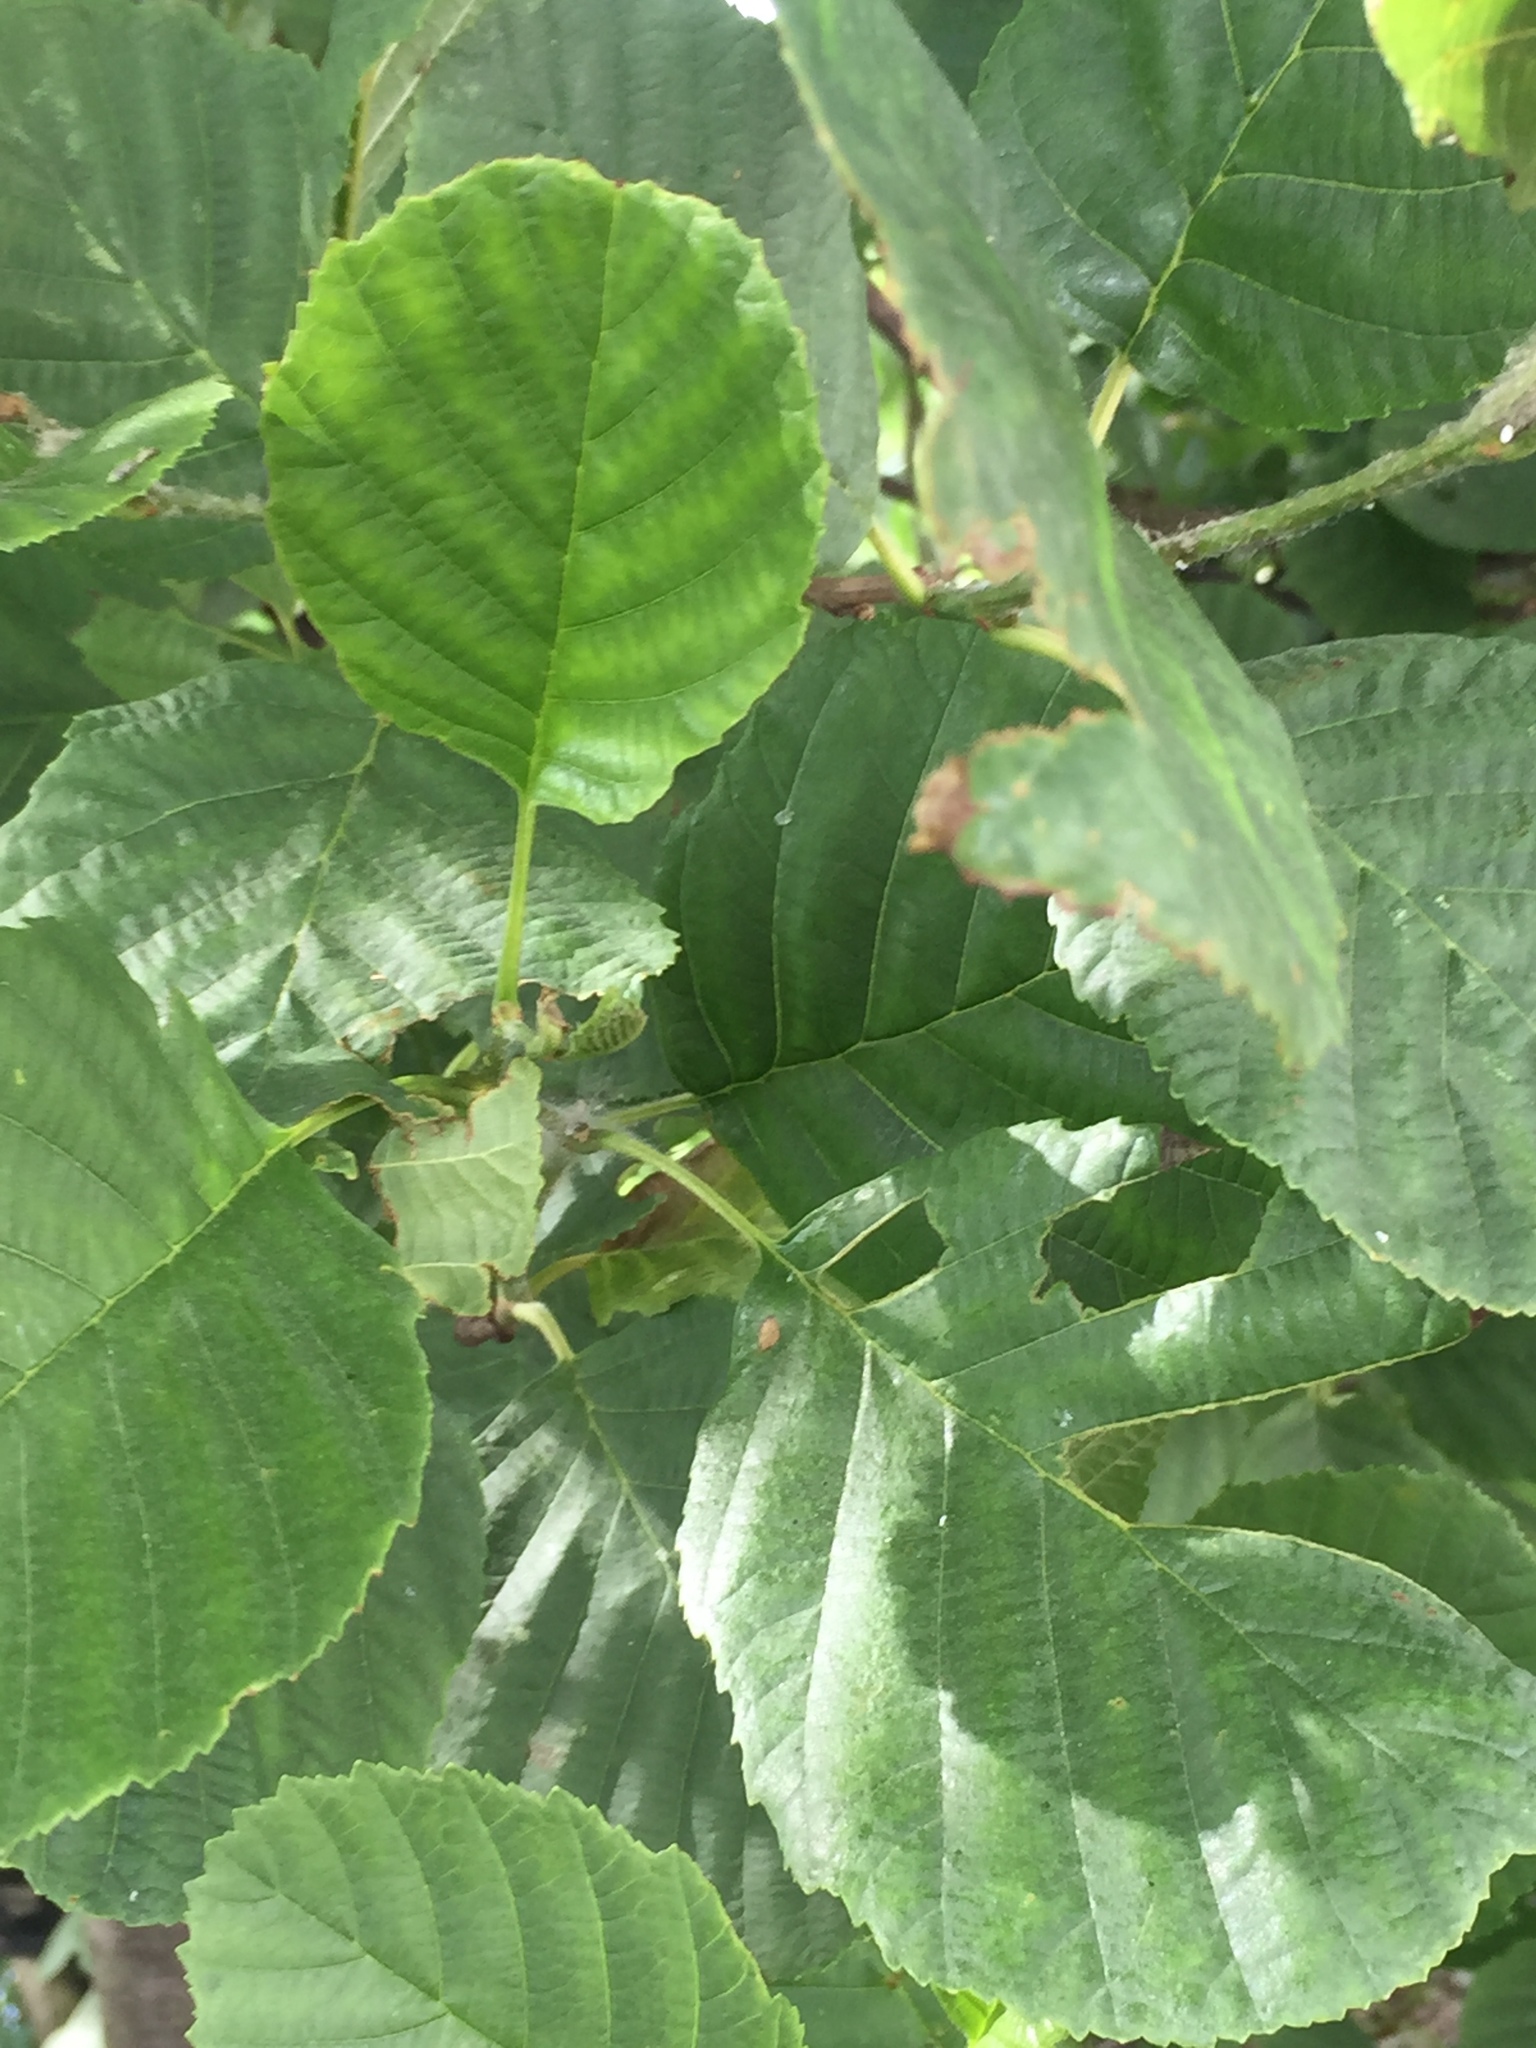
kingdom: Plantae
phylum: Tracheophyta
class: Magnoliopsida
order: Fagales
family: Betulaceae
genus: Alnus
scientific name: Alnus glutinosa
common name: Black alder
